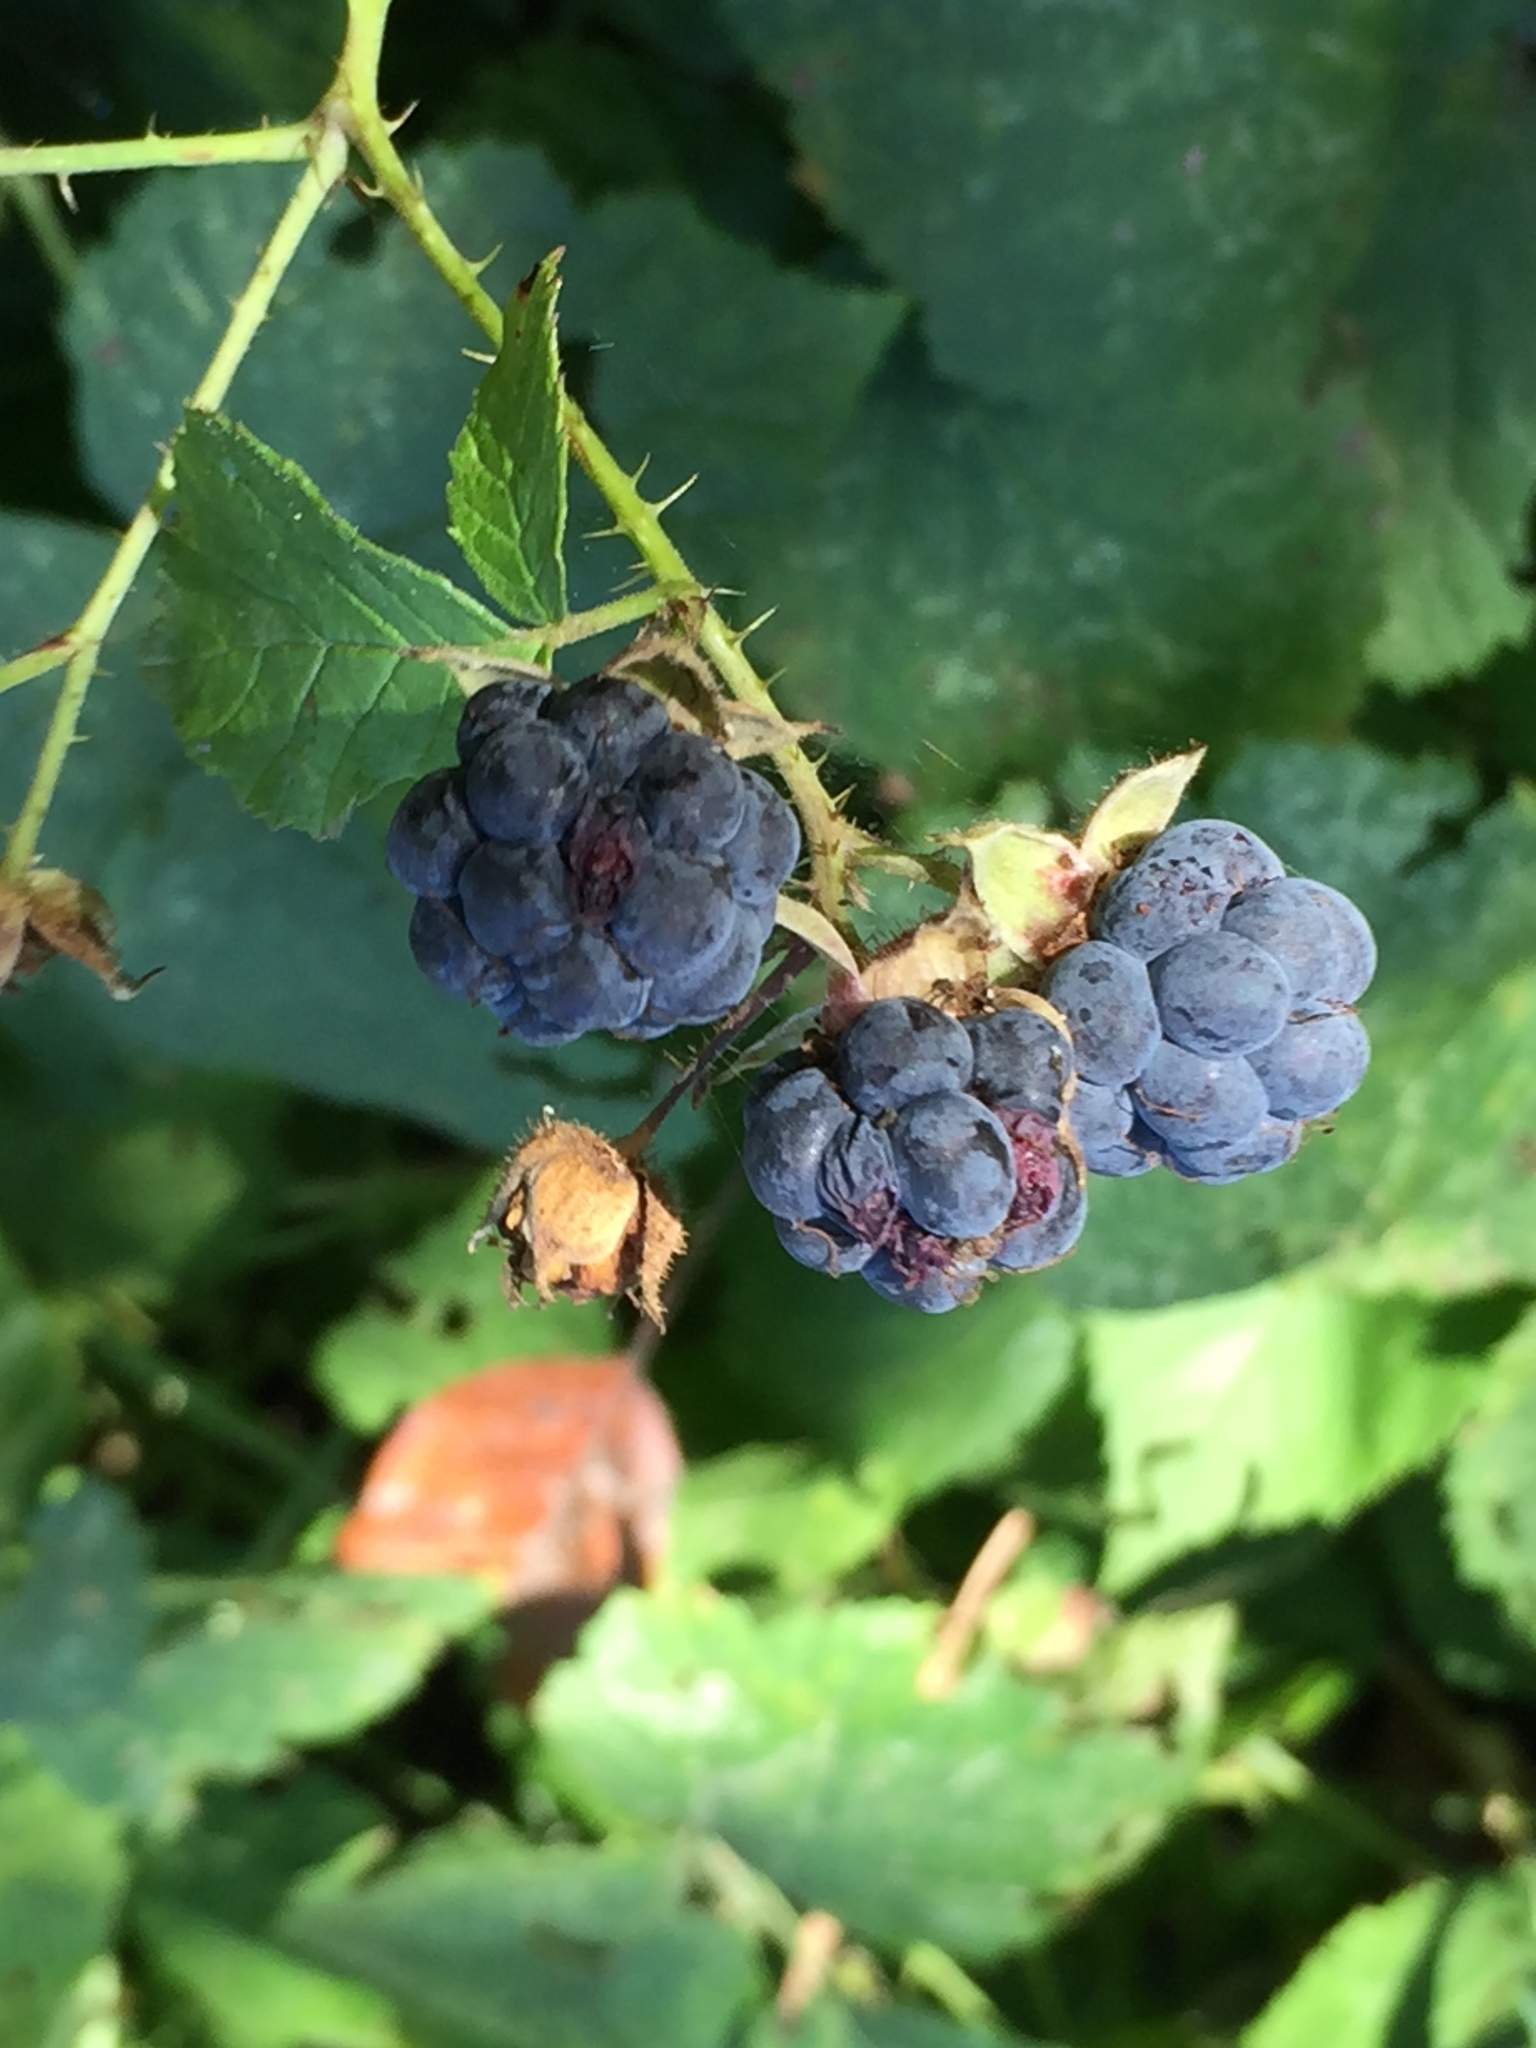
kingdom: Plantae
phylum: Tracheophyta
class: Magnoliopsida
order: Rosales
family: Rosaceae
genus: Rubus
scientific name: Rubus caesius
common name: Dewberry
